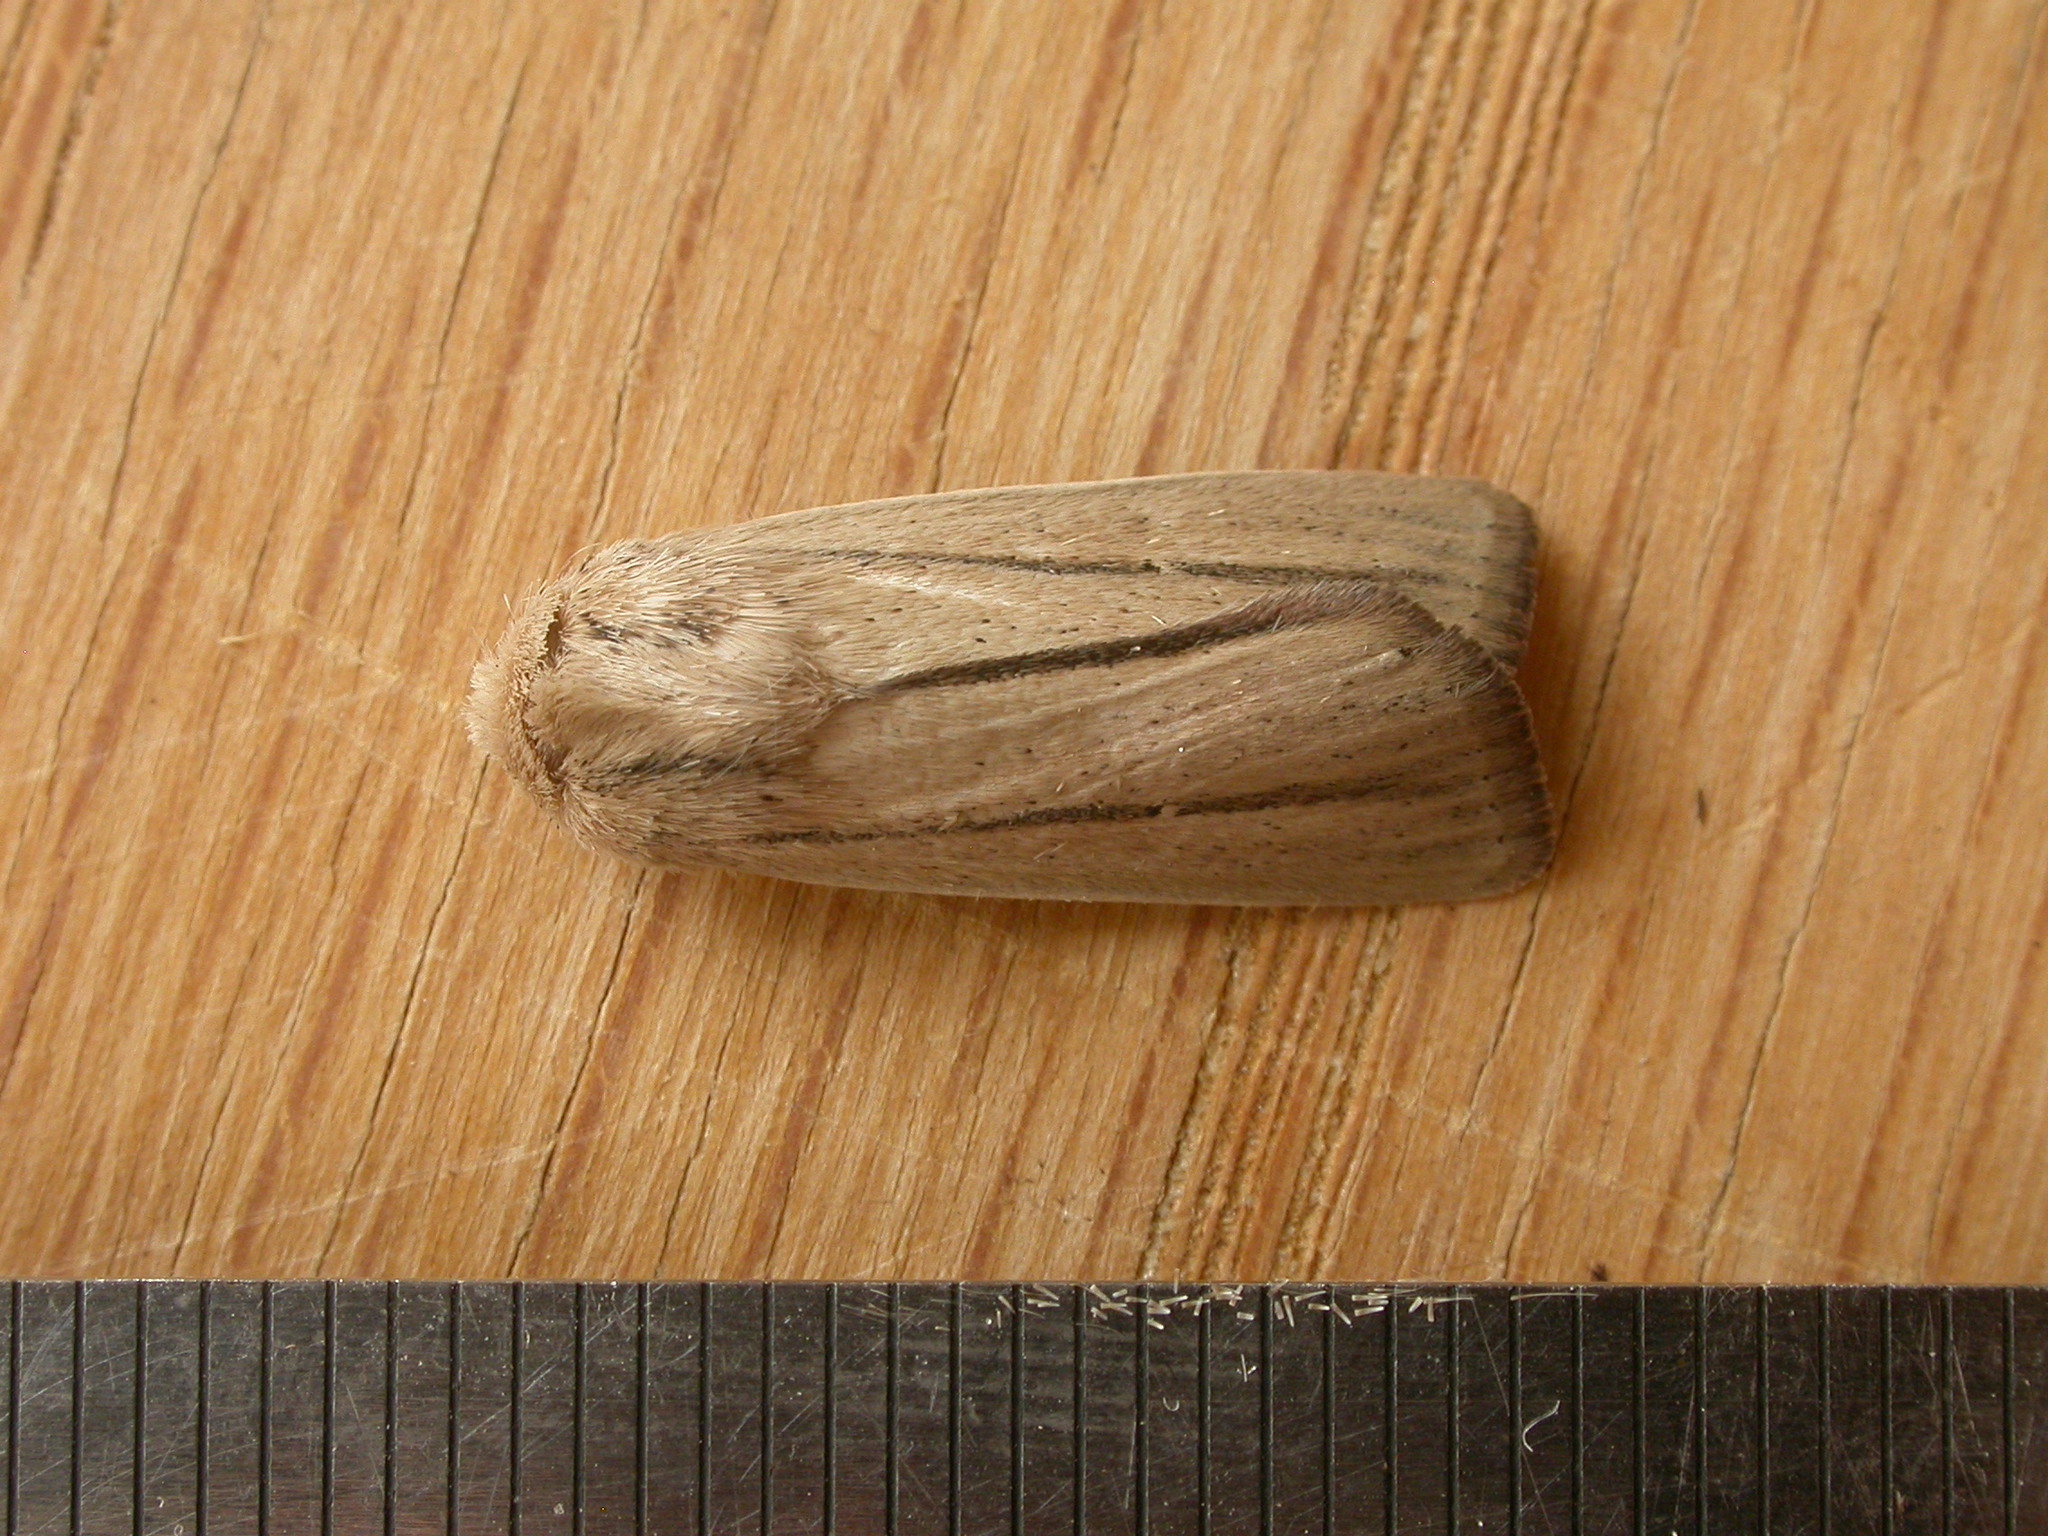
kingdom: Animalia
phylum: Arthropoda
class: Insecta
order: Lepidoptera
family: Noctuidae
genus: Leucania
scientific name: Leucania diatrecta
